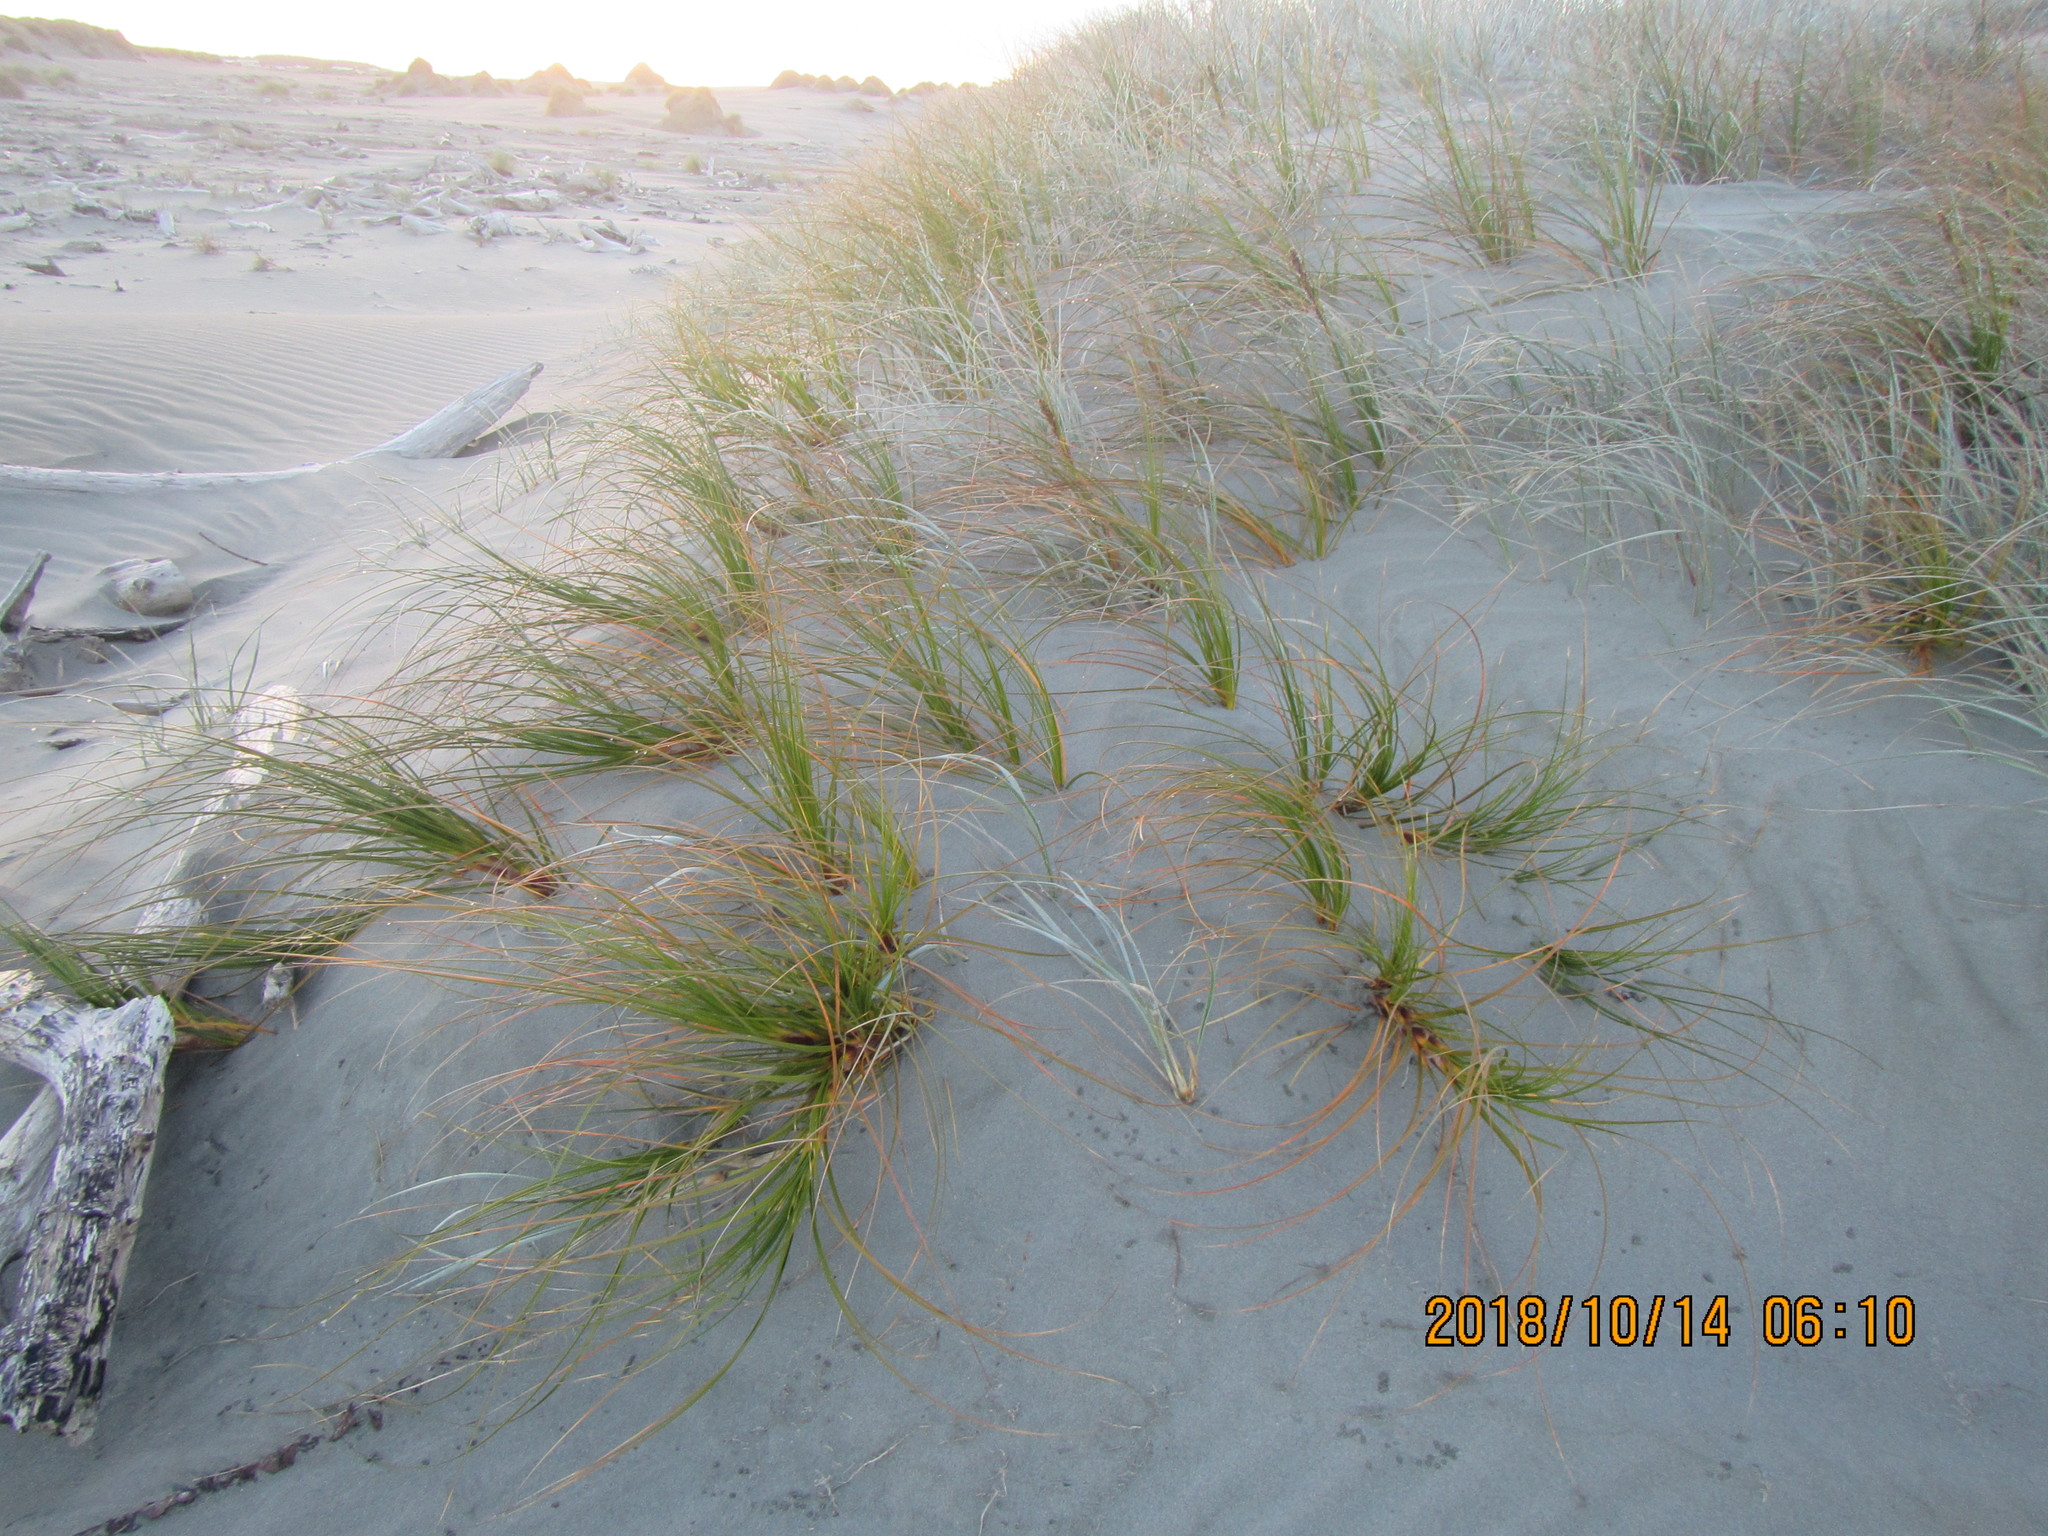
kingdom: Plantae
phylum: Tracheophyta
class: Liliopsida
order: Poales
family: Cyperaceae
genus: Ficinia
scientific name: Ficinia spiralis
